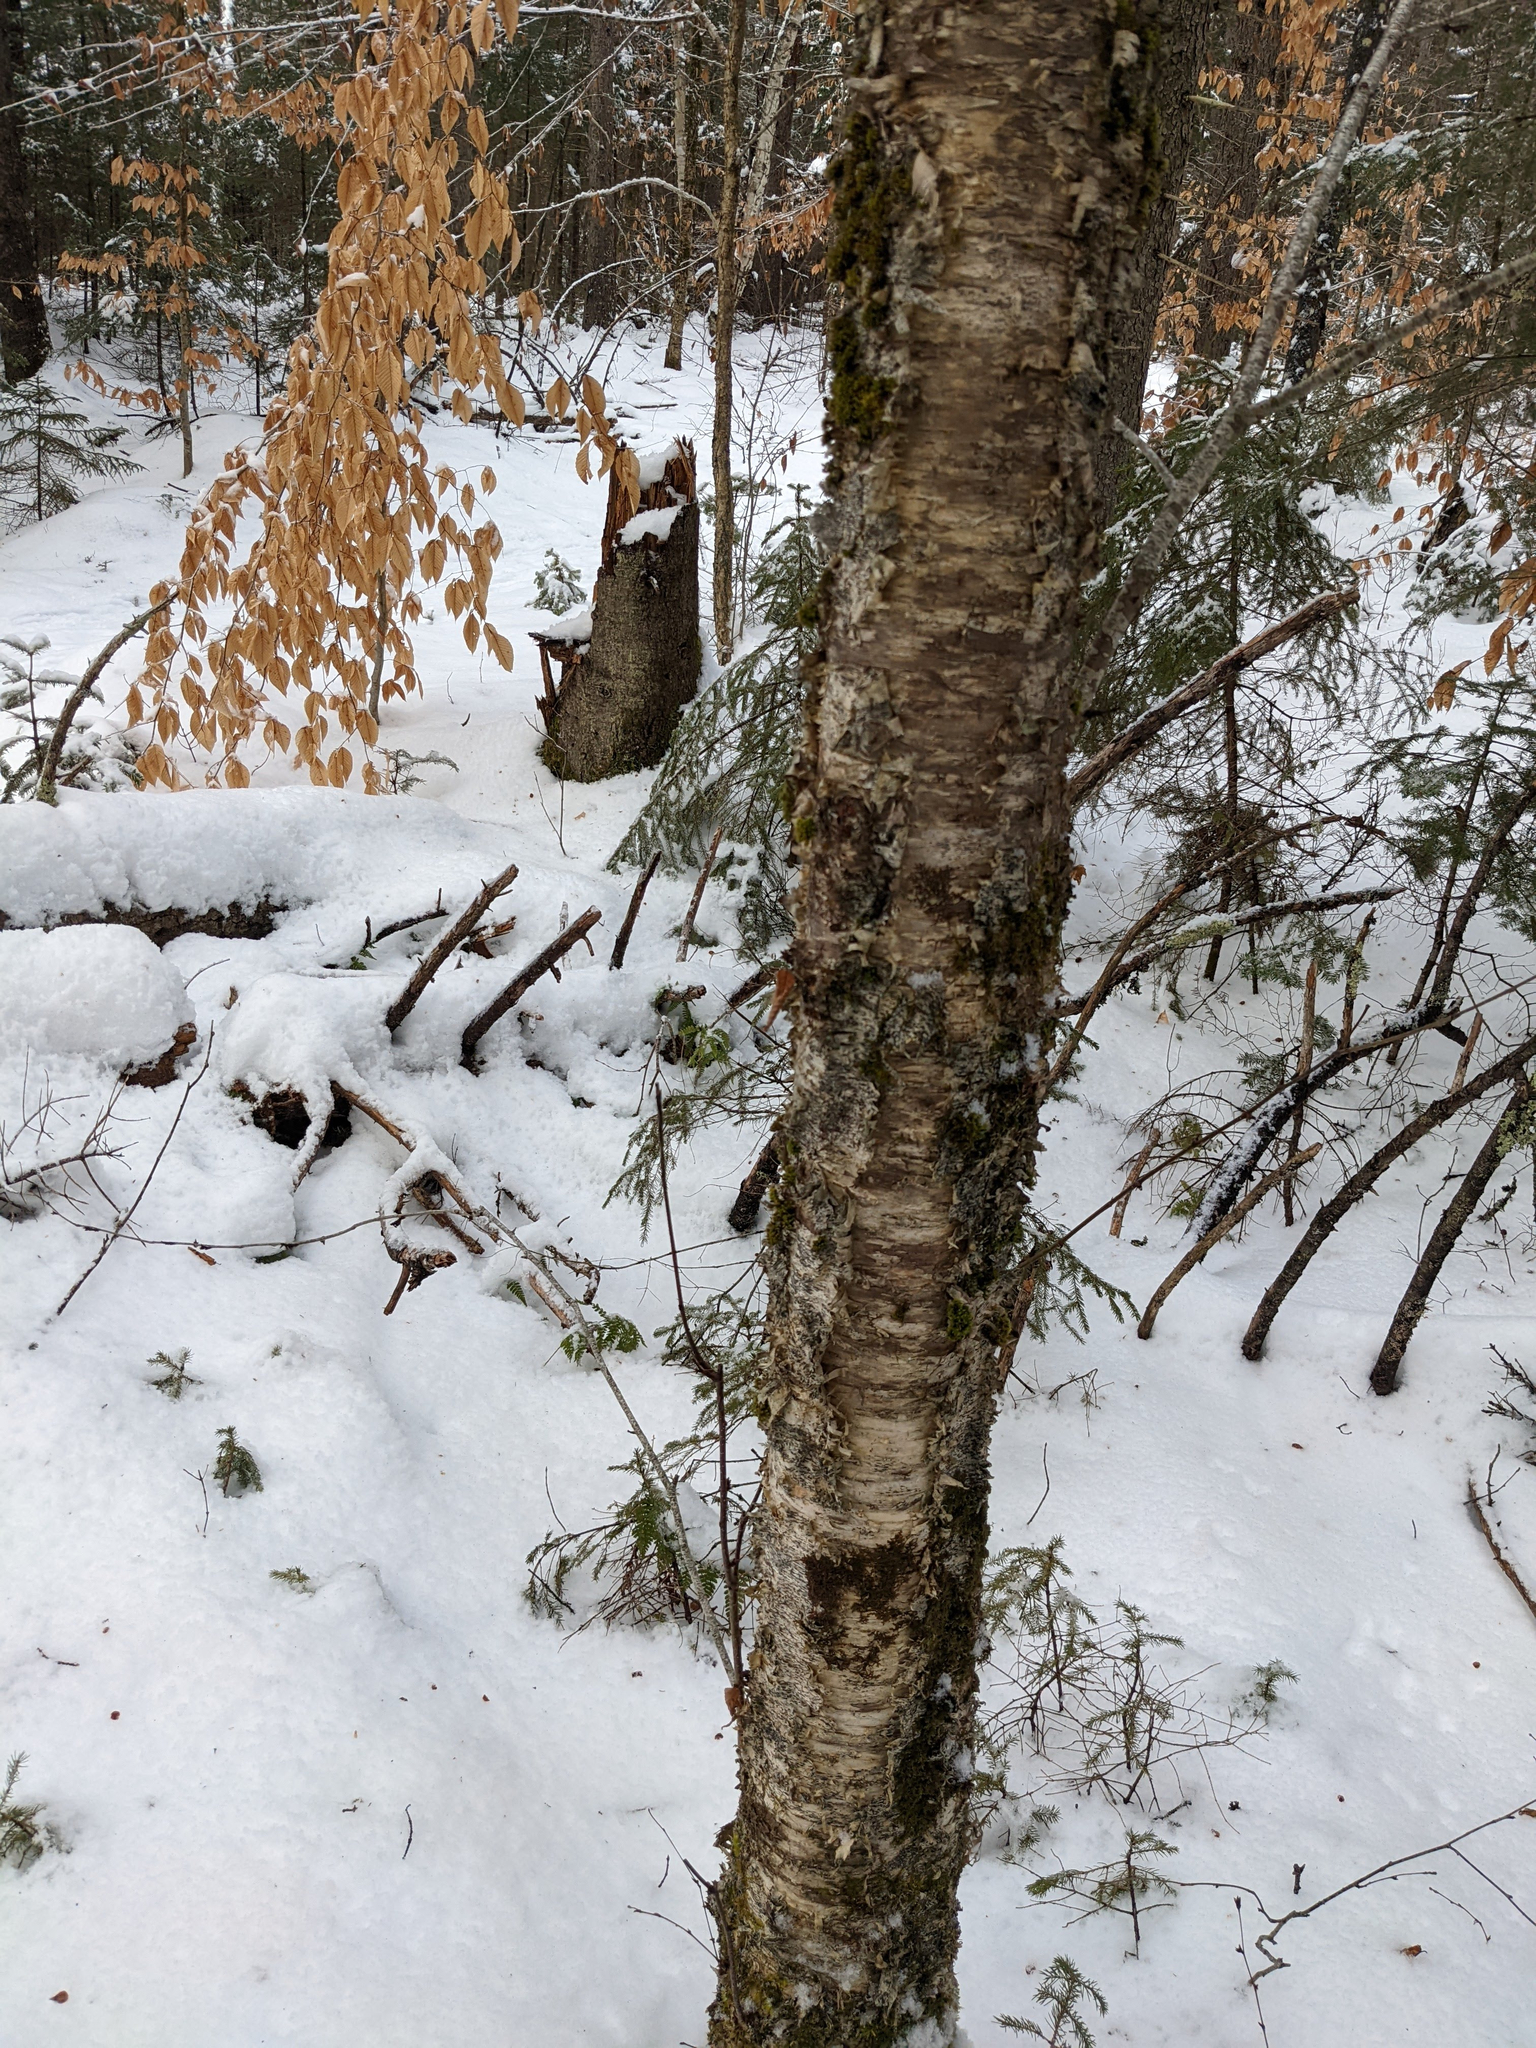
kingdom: Plantae
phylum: Tracheophyta
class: Magnoliopsida
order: Fagales
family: Betulaceae
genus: Betula
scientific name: Betula alleghaniensis
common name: Yellow birch
